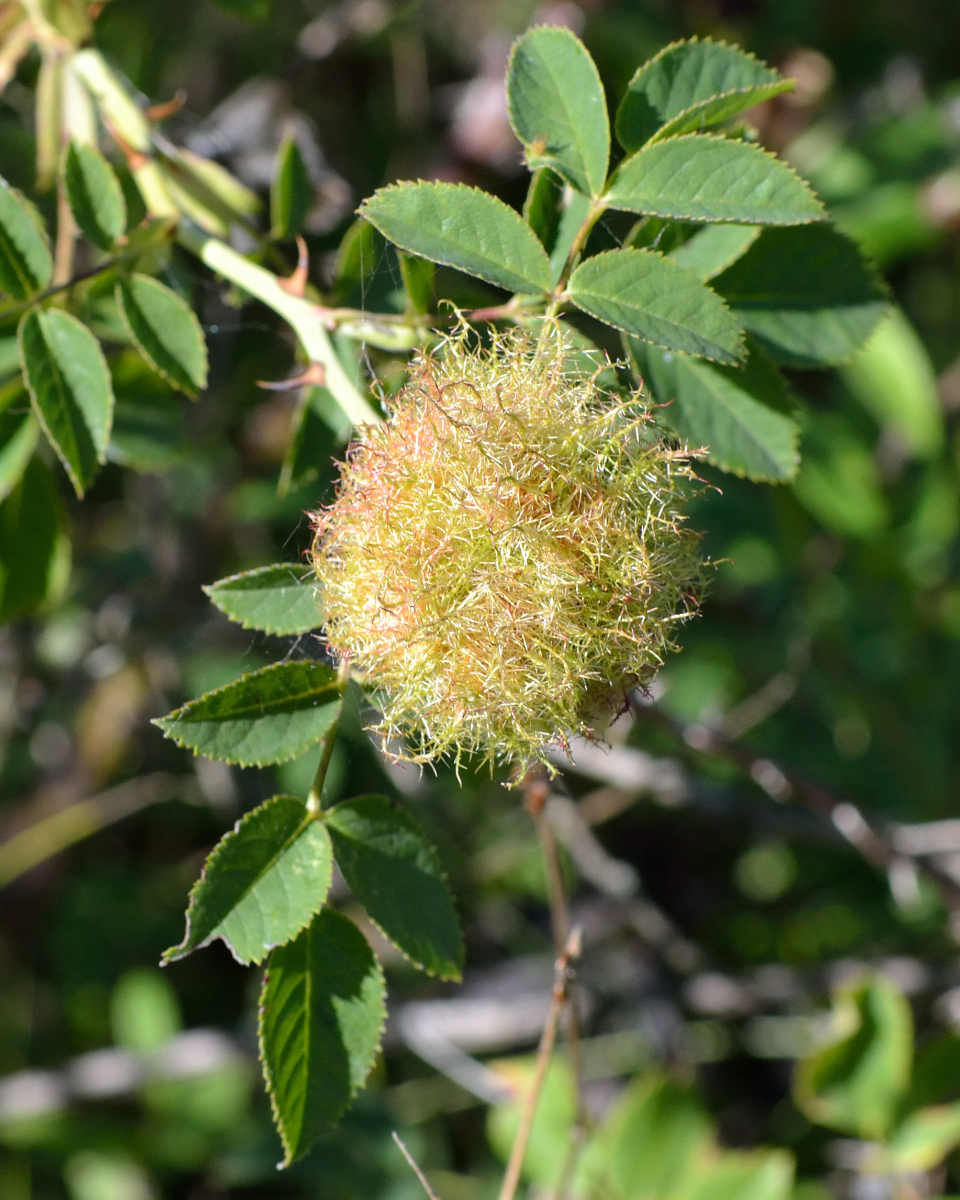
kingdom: Animalia
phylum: Arthropoda
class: Insecta
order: Hymenoptera
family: Cynipidae
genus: Diplolepis
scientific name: Diplolepis rosae
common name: Bedeguar gall
